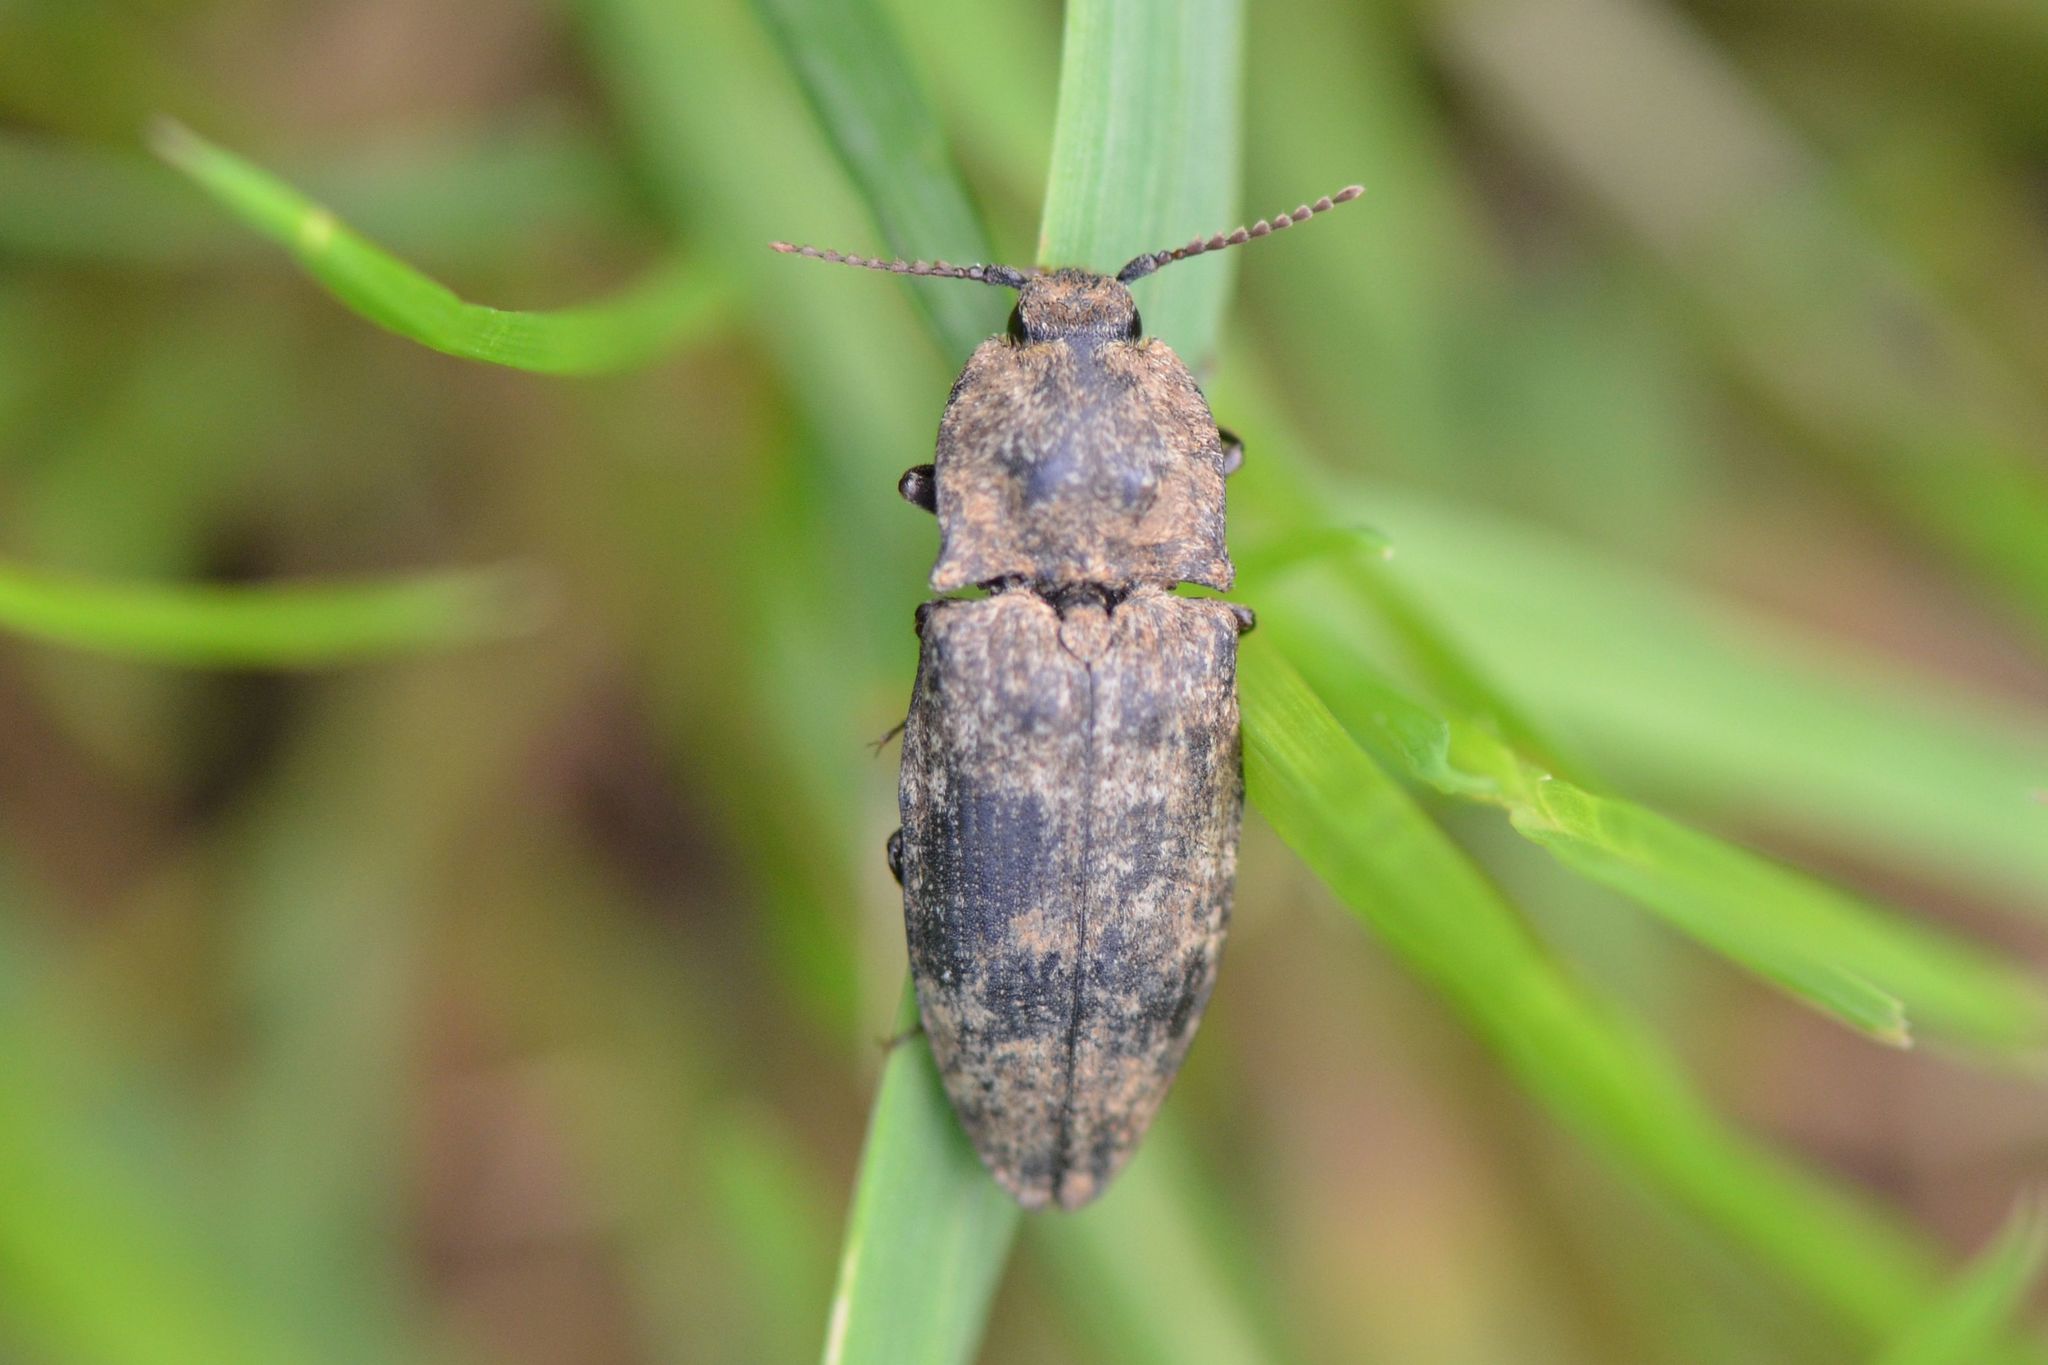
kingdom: Animalia
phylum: Arthropoda
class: Insecta
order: Coleoptera
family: Elateridae
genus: Agrypnus
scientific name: Agrypnus murinus
